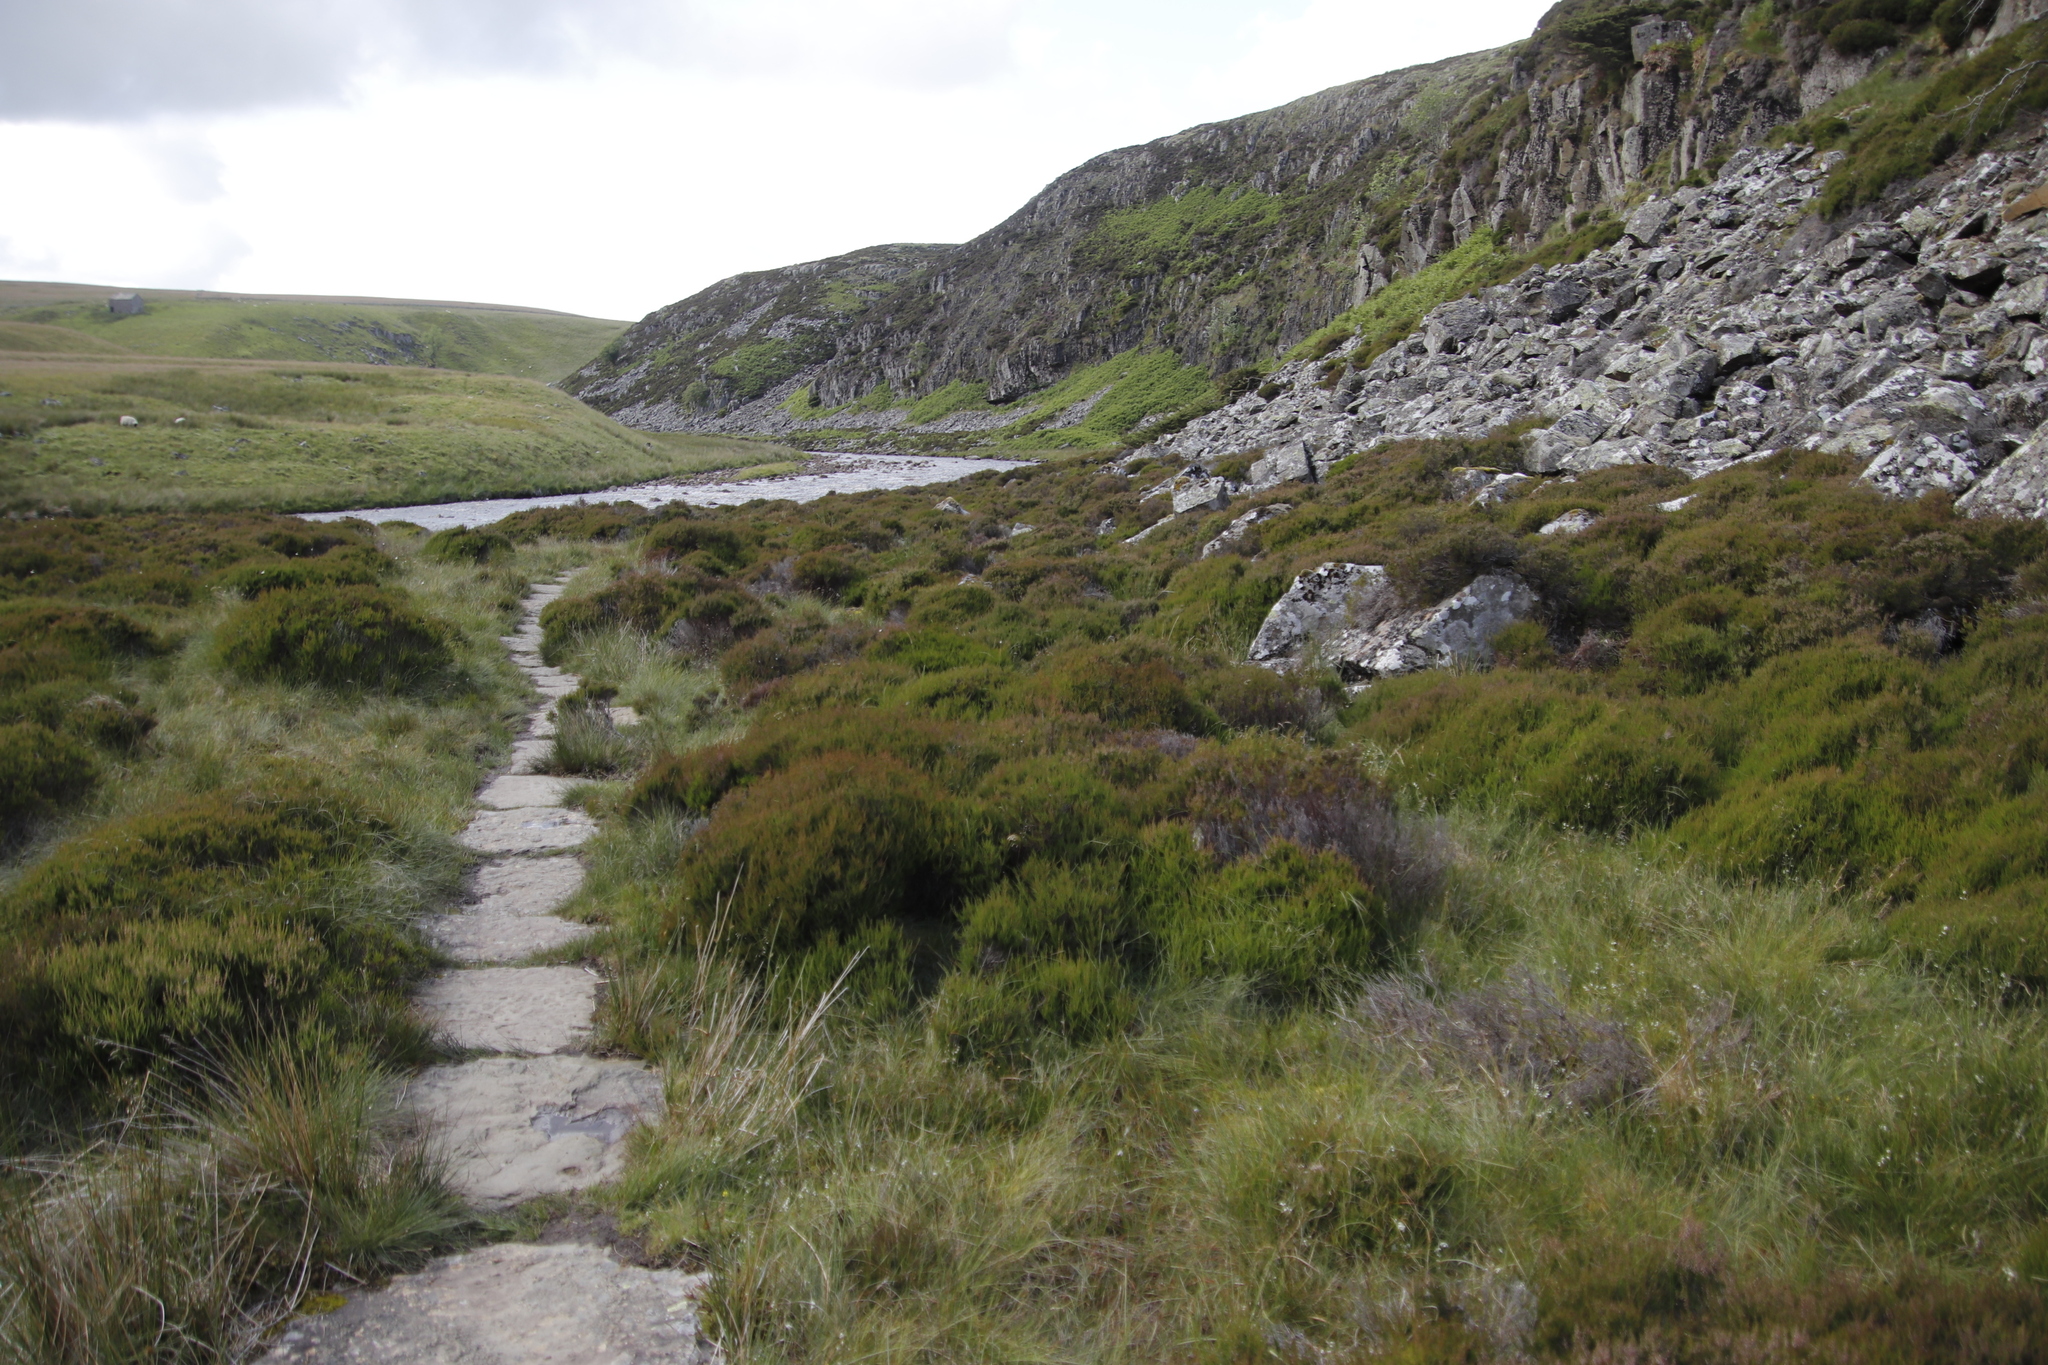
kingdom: Plantae
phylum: Tracheophyta
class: Magnoliopsida
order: Ericales
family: Ericaceae
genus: Calluna
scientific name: Calluna vulgaris
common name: Heather
